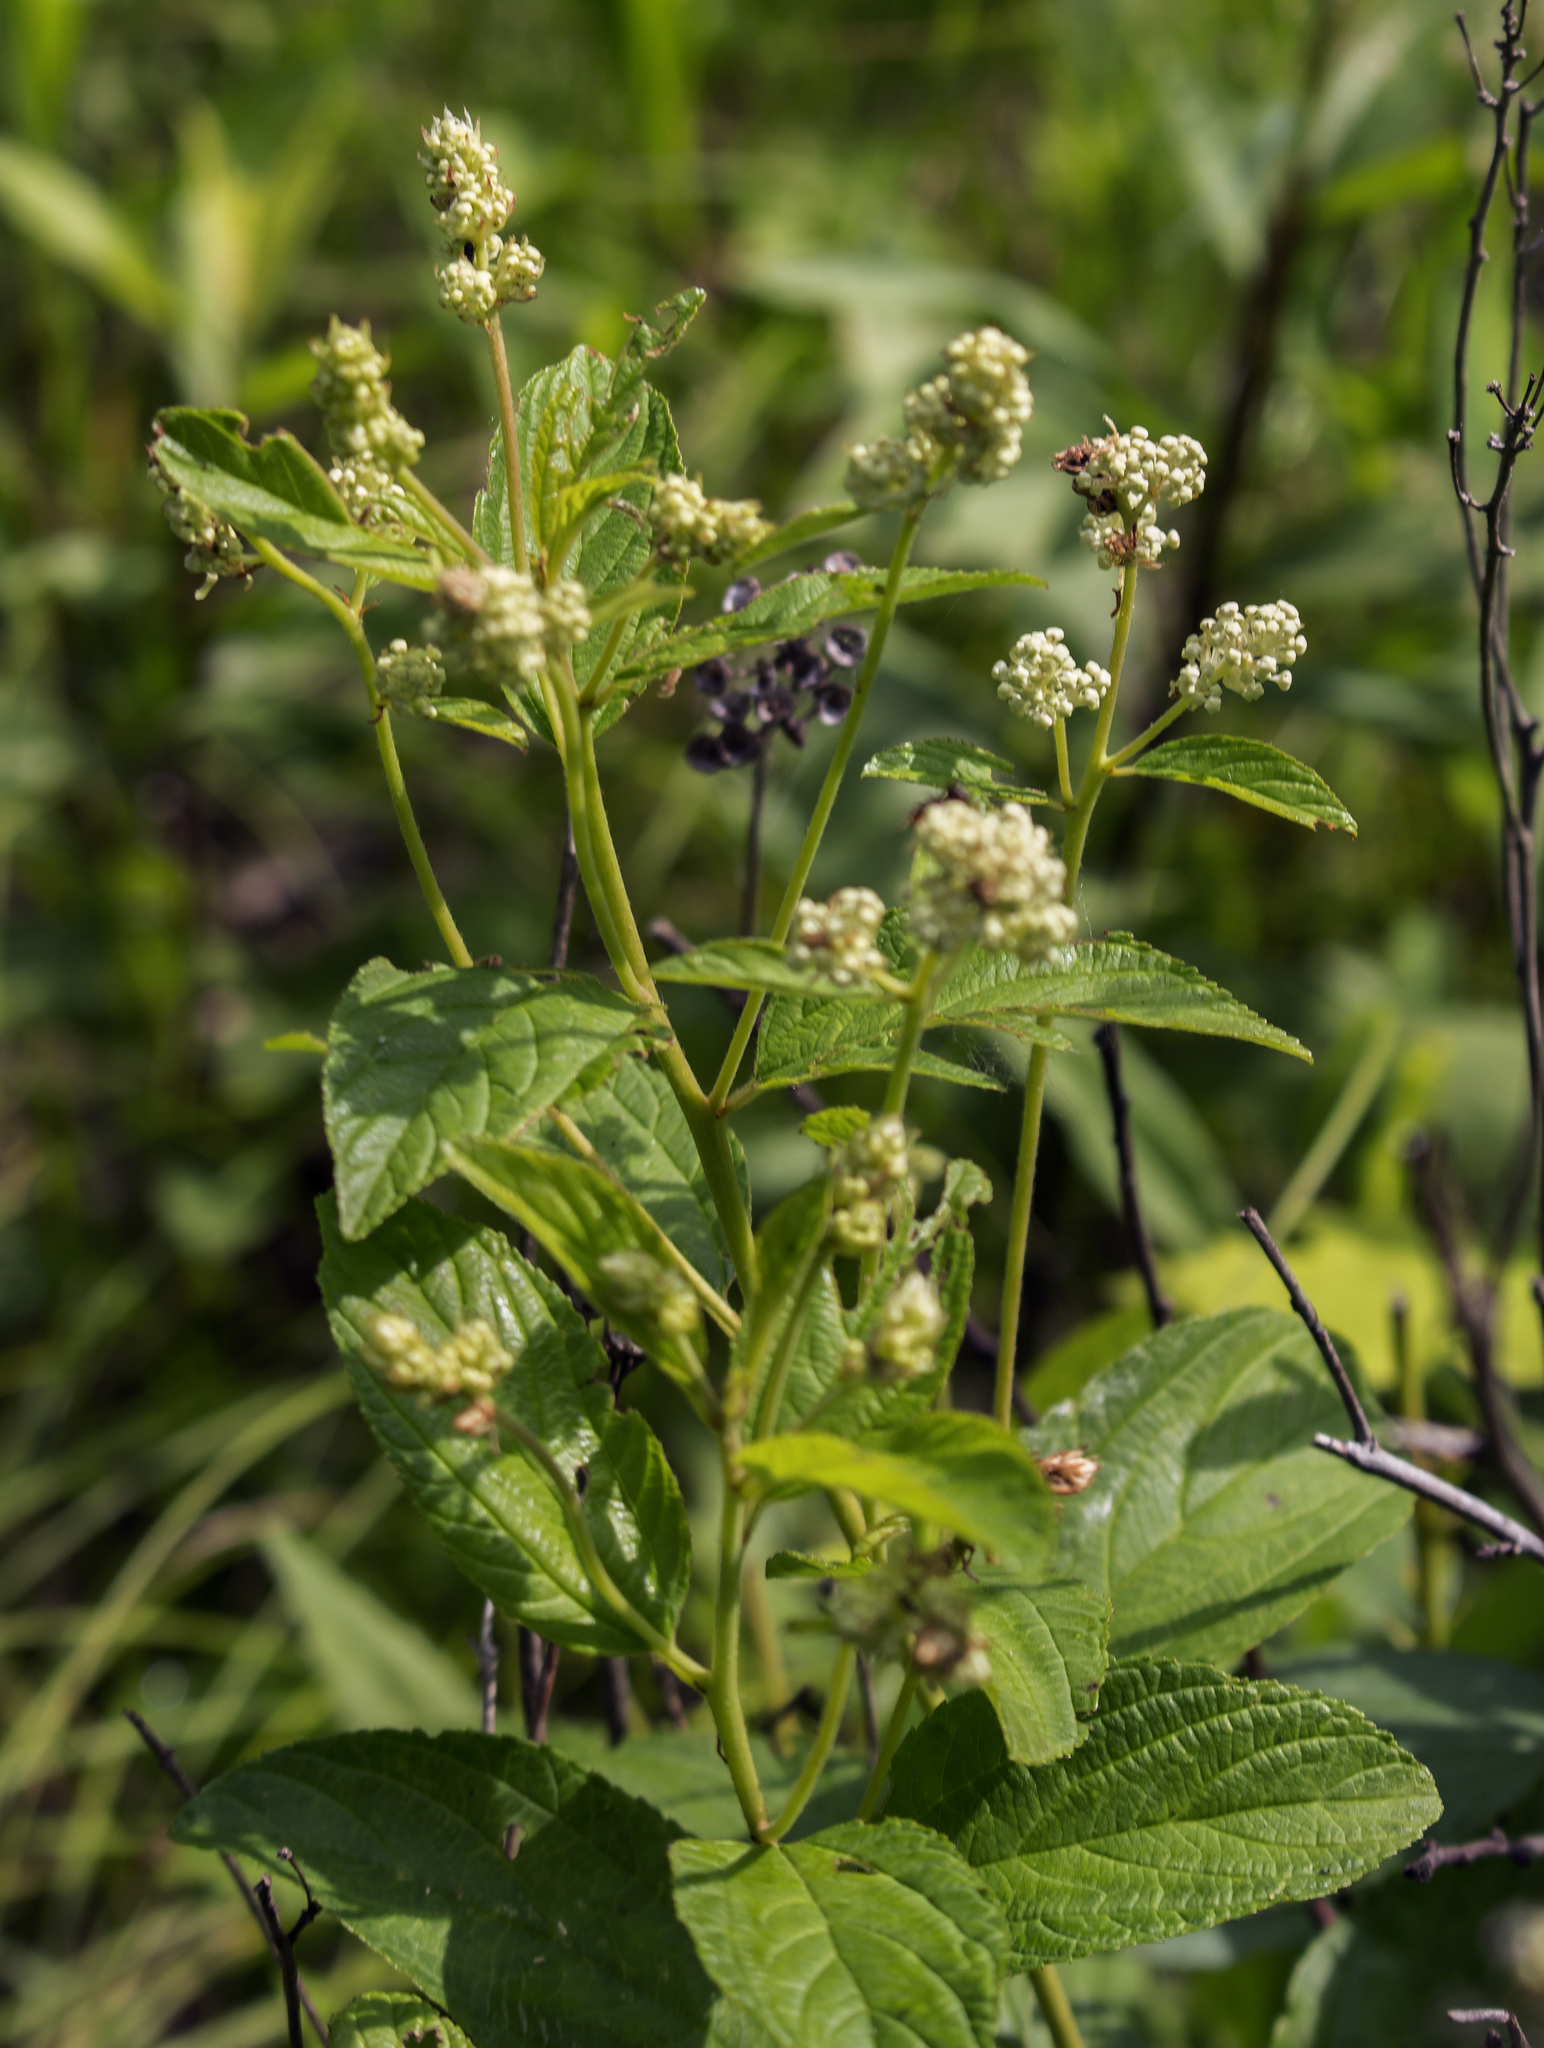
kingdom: Plantae
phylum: Tracheophyta
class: Magnoliopsida
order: Rosales
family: Rhamnaceae
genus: Ceanothus
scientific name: Ceanothus americanus
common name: Redroot
